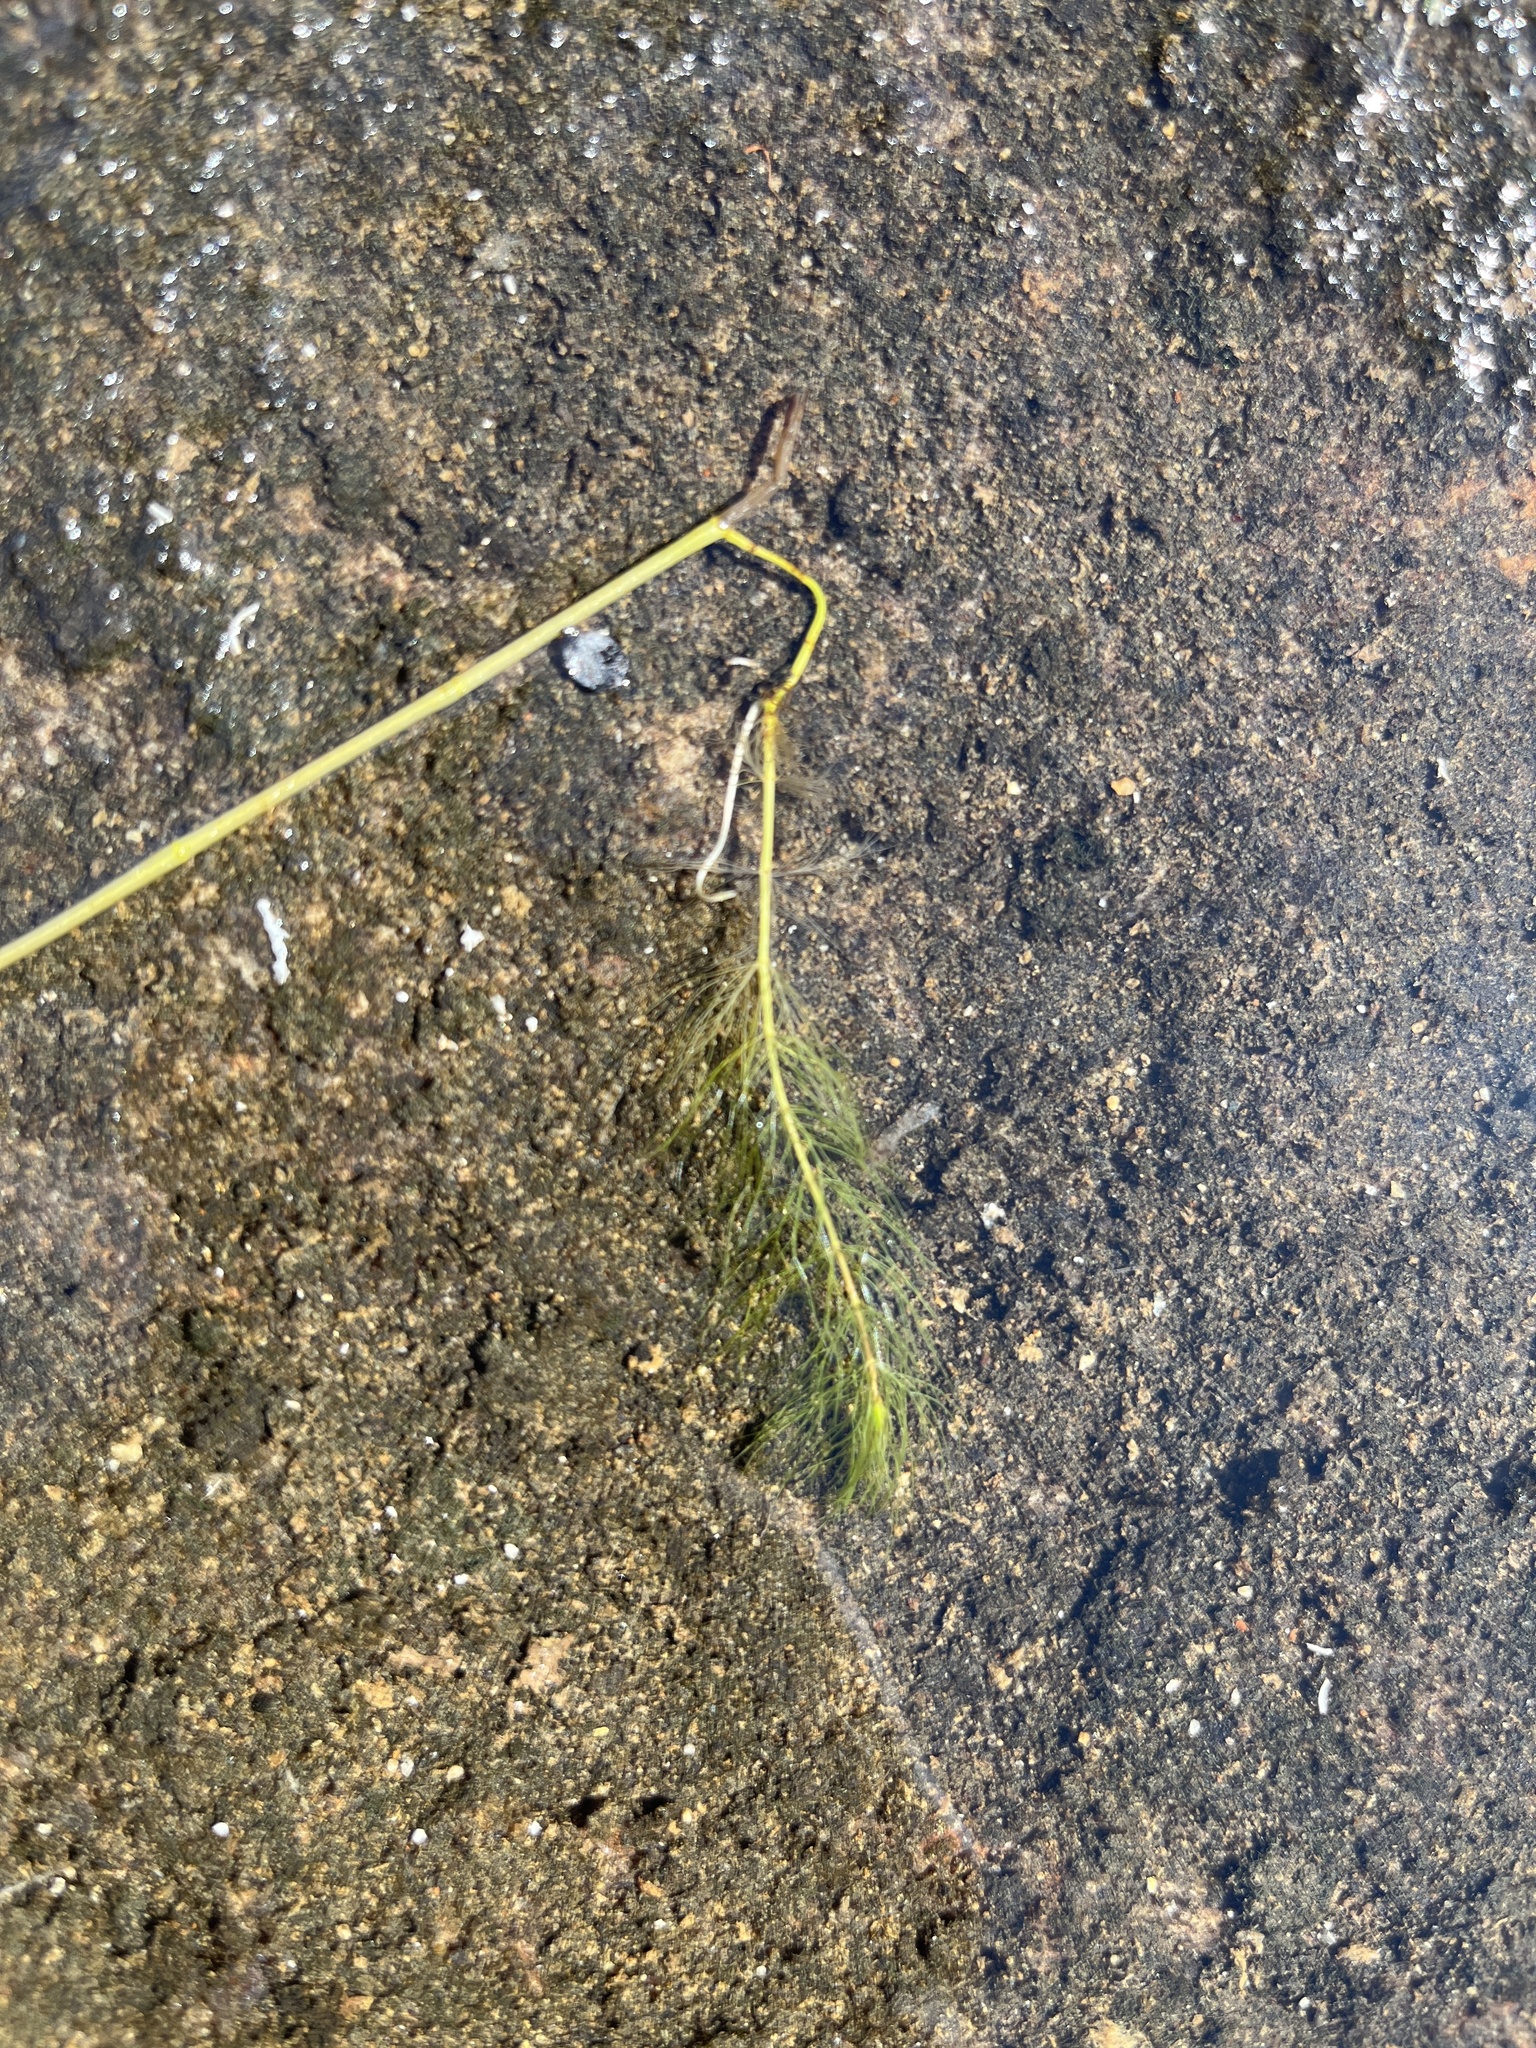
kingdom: Plantae
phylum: Tracheophyta
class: Magnoliopsida
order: Saxifragales
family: Haloragaceae
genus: Myriophyllum
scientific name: Myriophyllum alterniflorum
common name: Alternate water-milfoil
